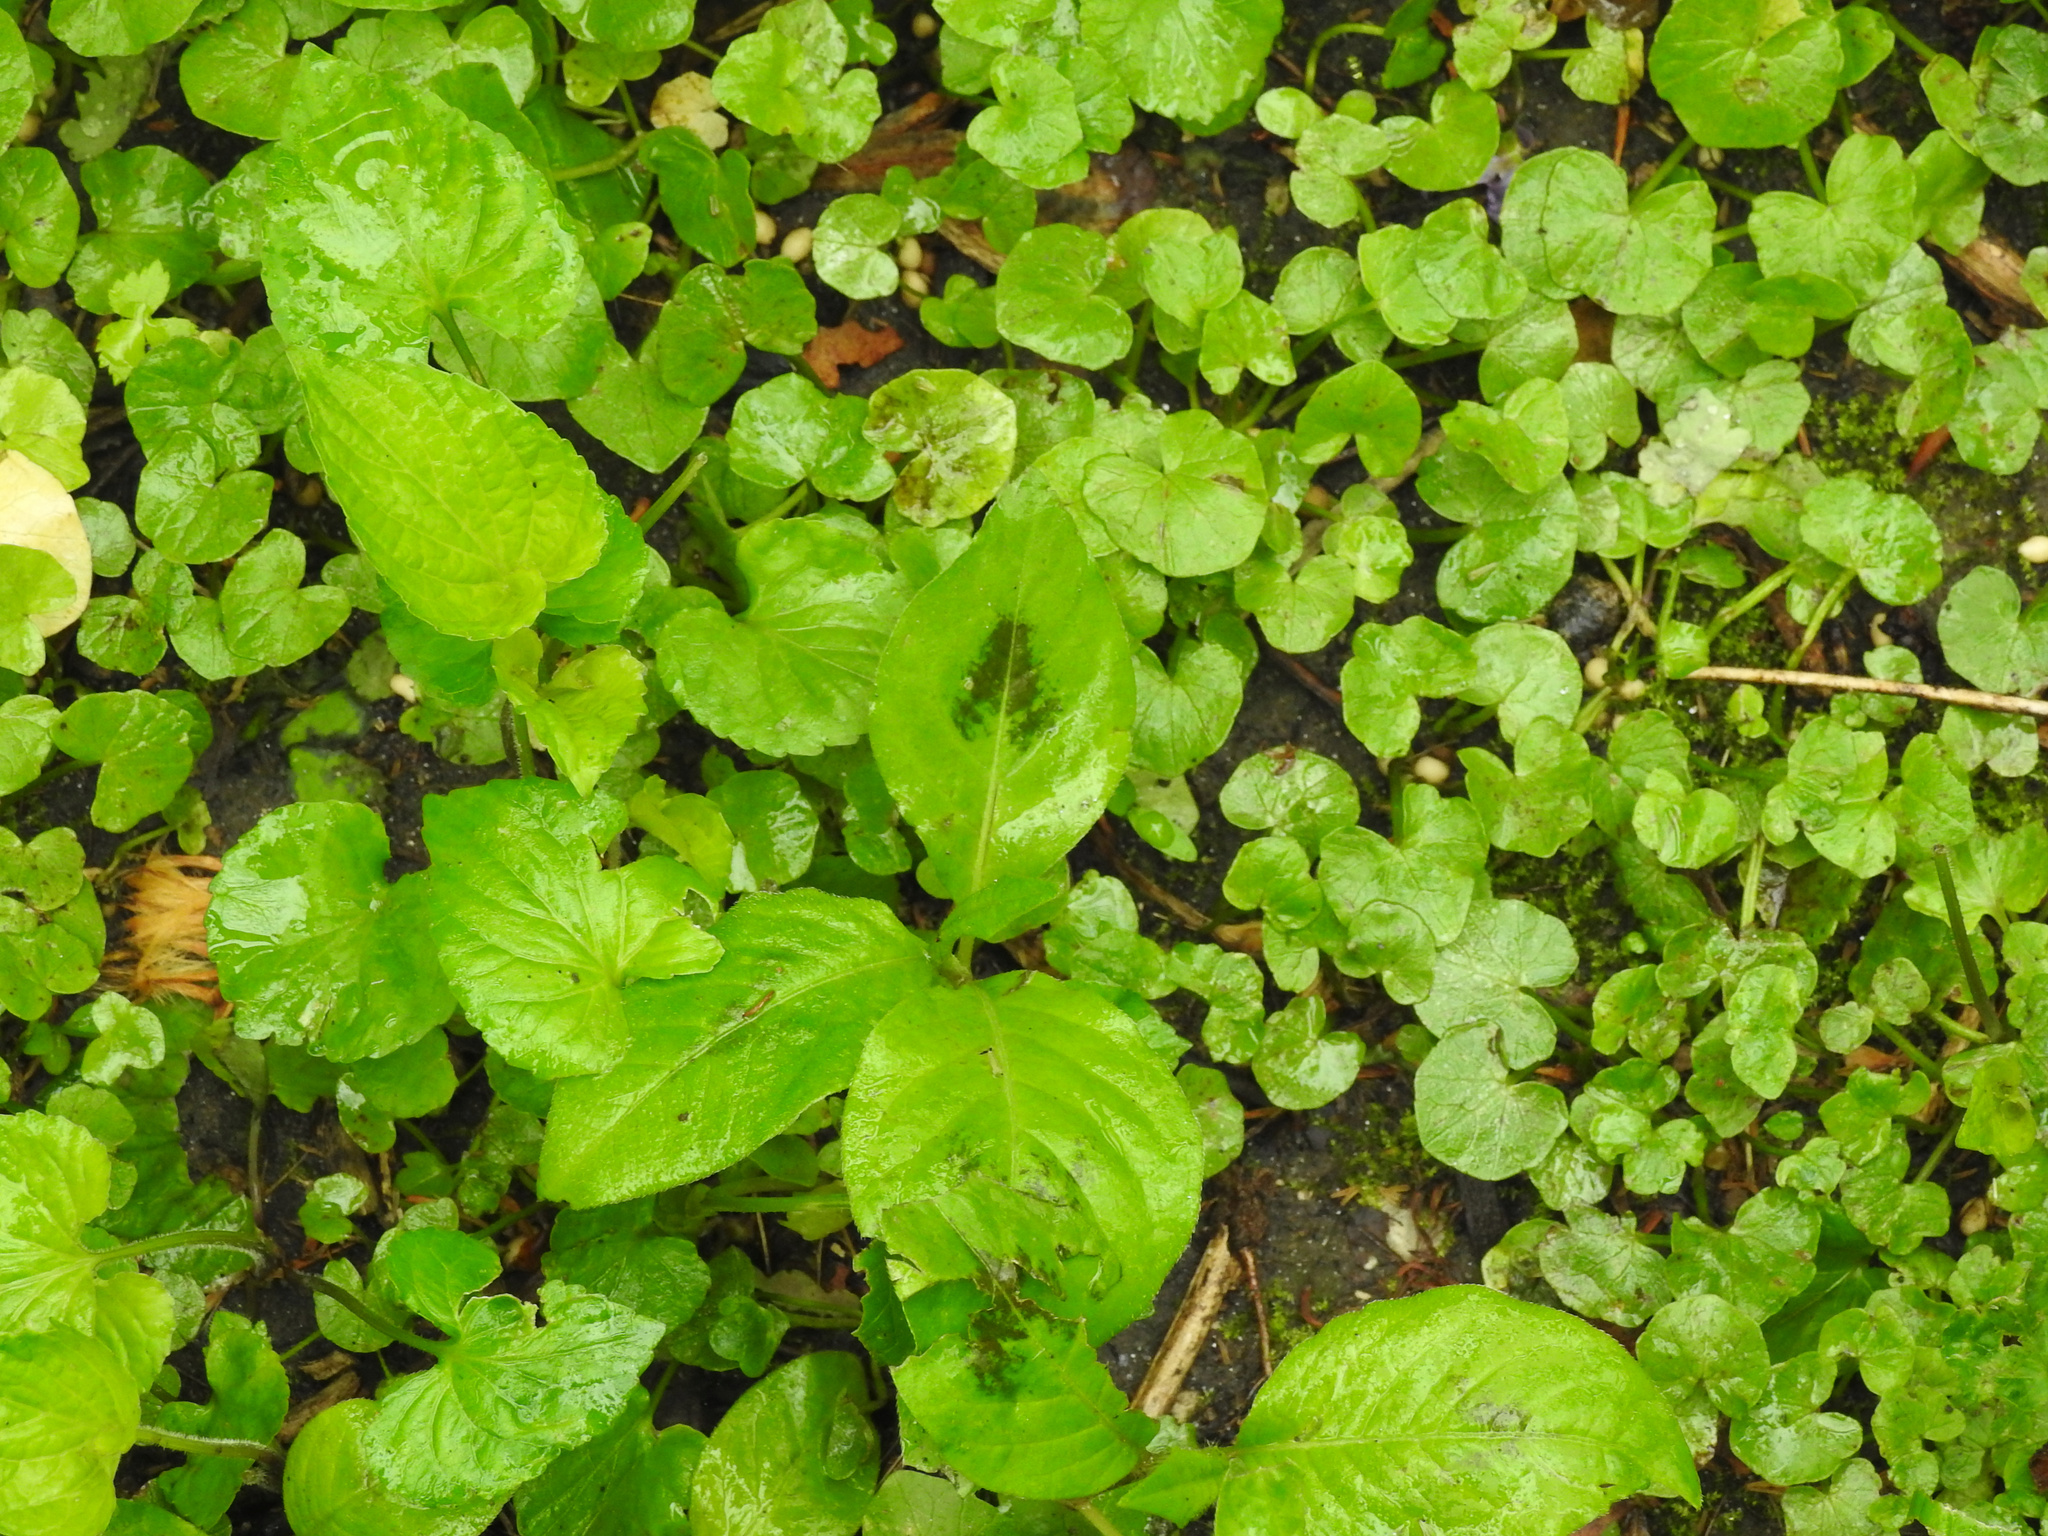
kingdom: Plantae
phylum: Tracheophyta
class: Magnoliopsida
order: Caryophyllales
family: Polygonaceae
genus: Persicaria
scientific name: Persicaria virginiana
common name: Jumpseed
